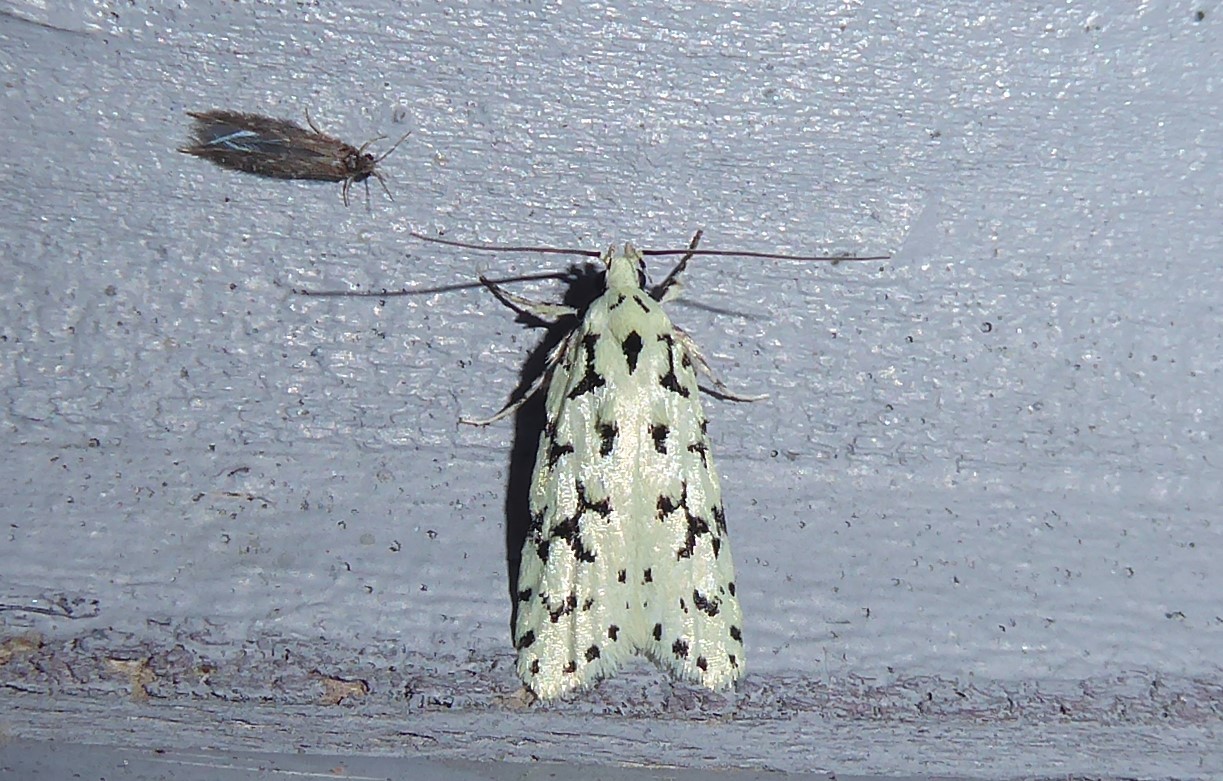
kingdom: Animalia
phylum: Arthropoda
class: Insecta
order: Lepidoptera
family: Oecophoridae
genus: Izatha
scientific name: Izatha huttoni
